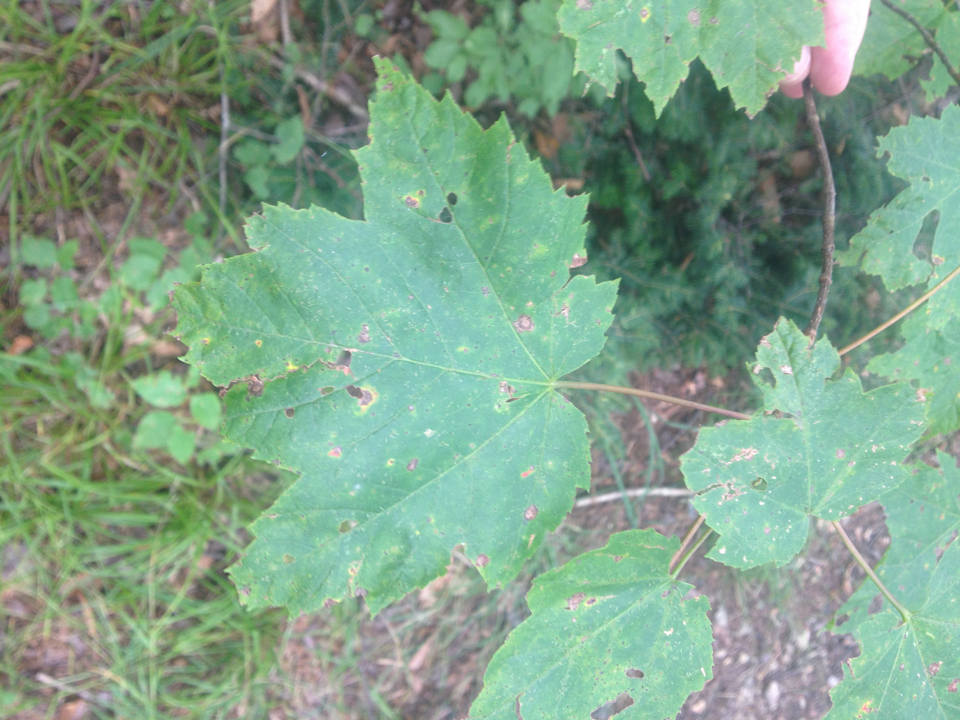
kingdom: Plantae
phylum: Tracheophyta
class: Magnoliopsida
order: Sapindales
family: Sapindaceae
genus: Acer
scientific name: Acer rubrum
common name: Red maple
